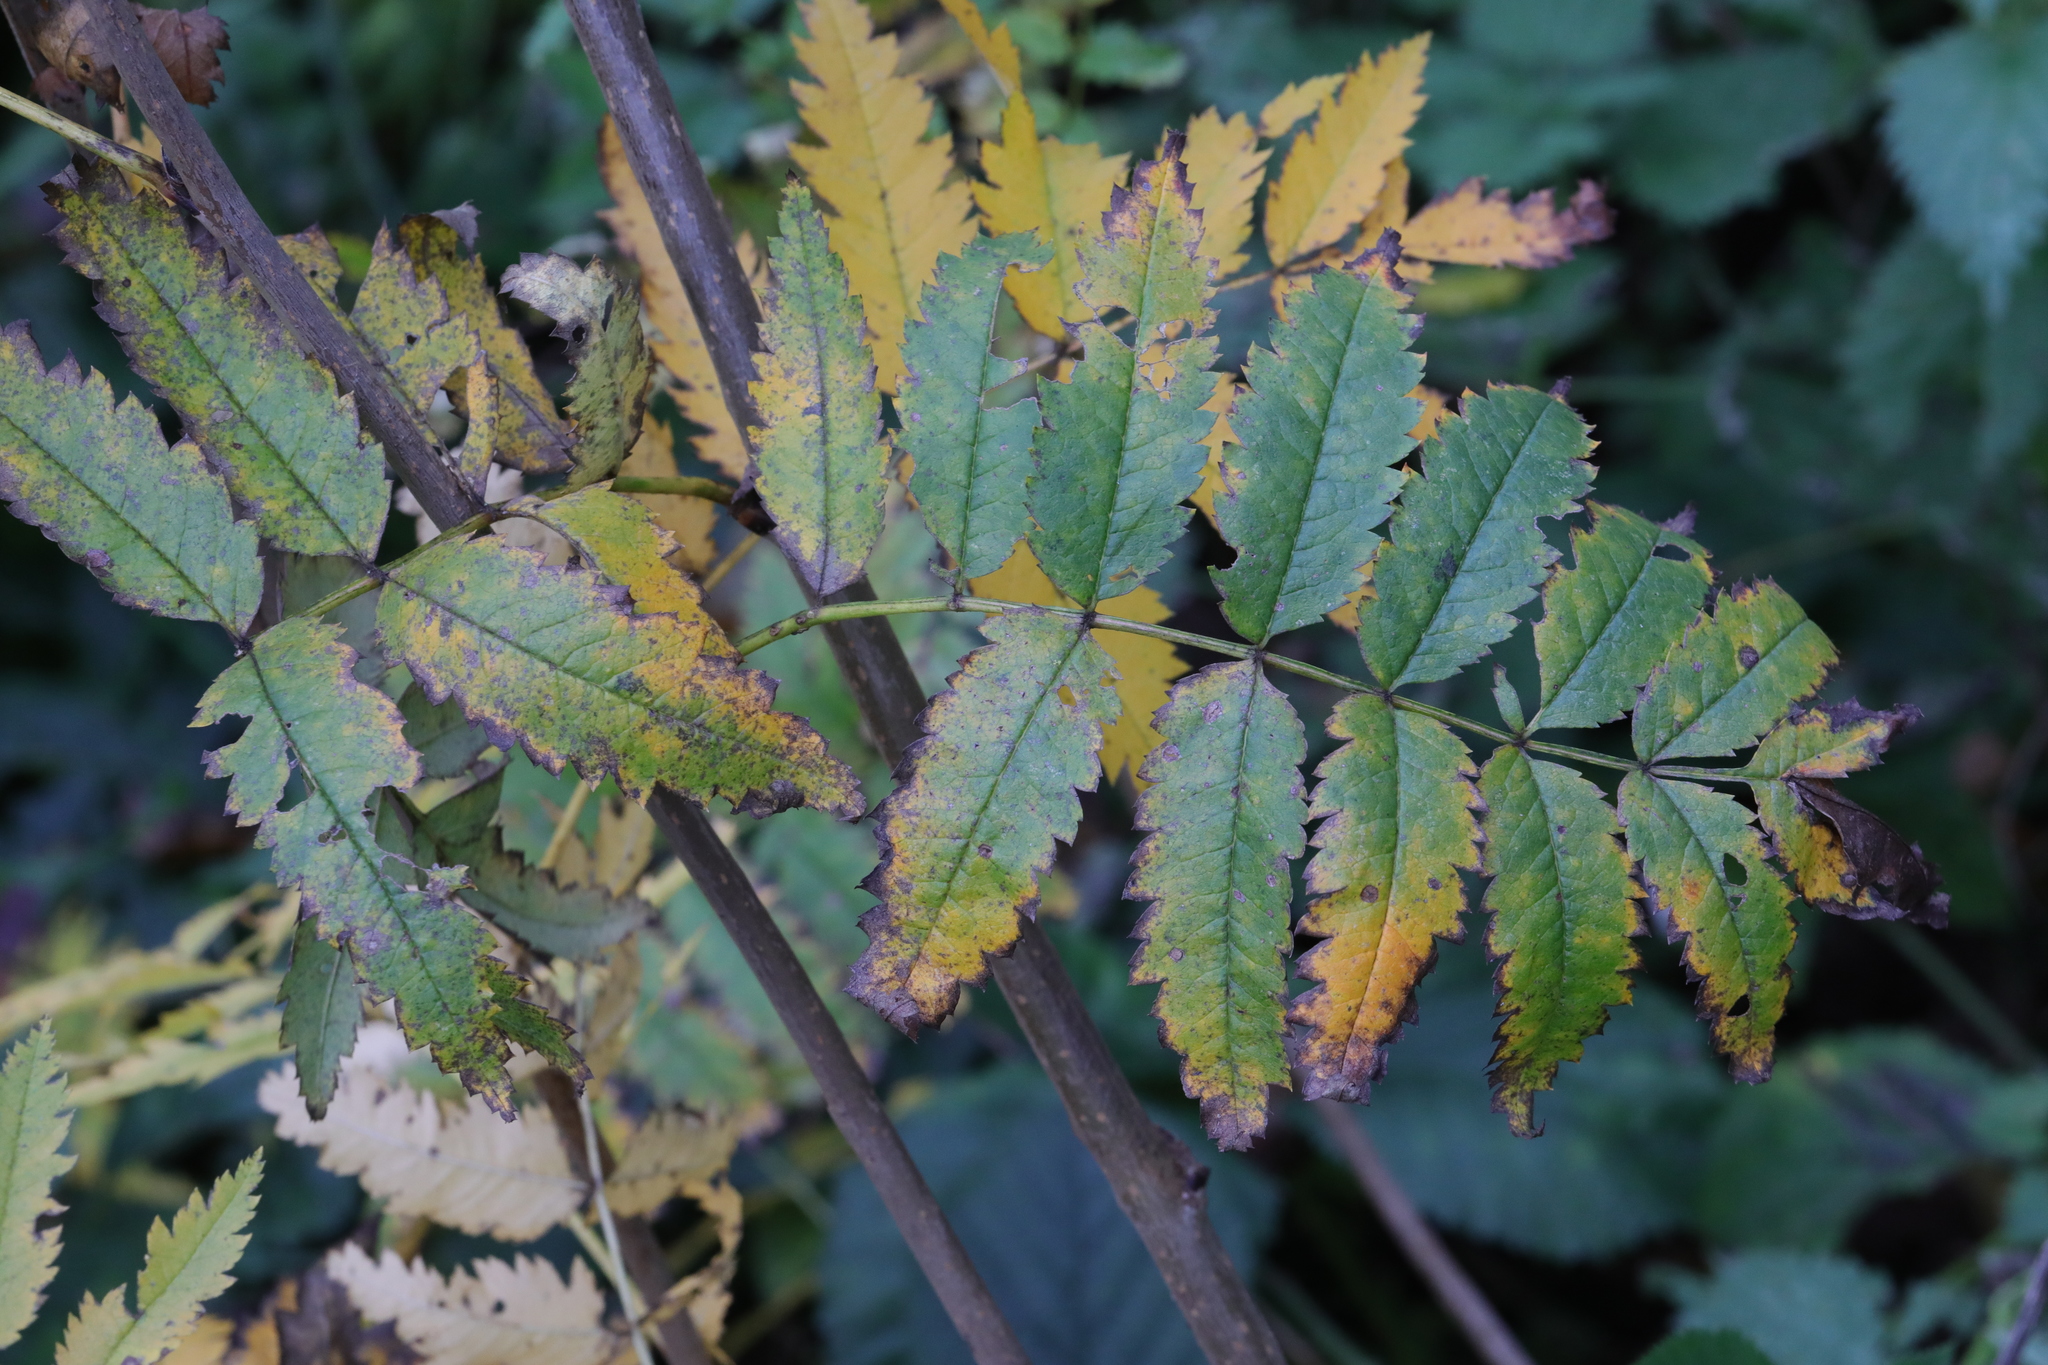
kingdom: Plantae
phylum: Tracheophyta
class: Magnoliopsida
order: Rosales
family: Rosaceae
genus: Sorbus
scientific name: Sorbus aucuparia
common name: Rowan
